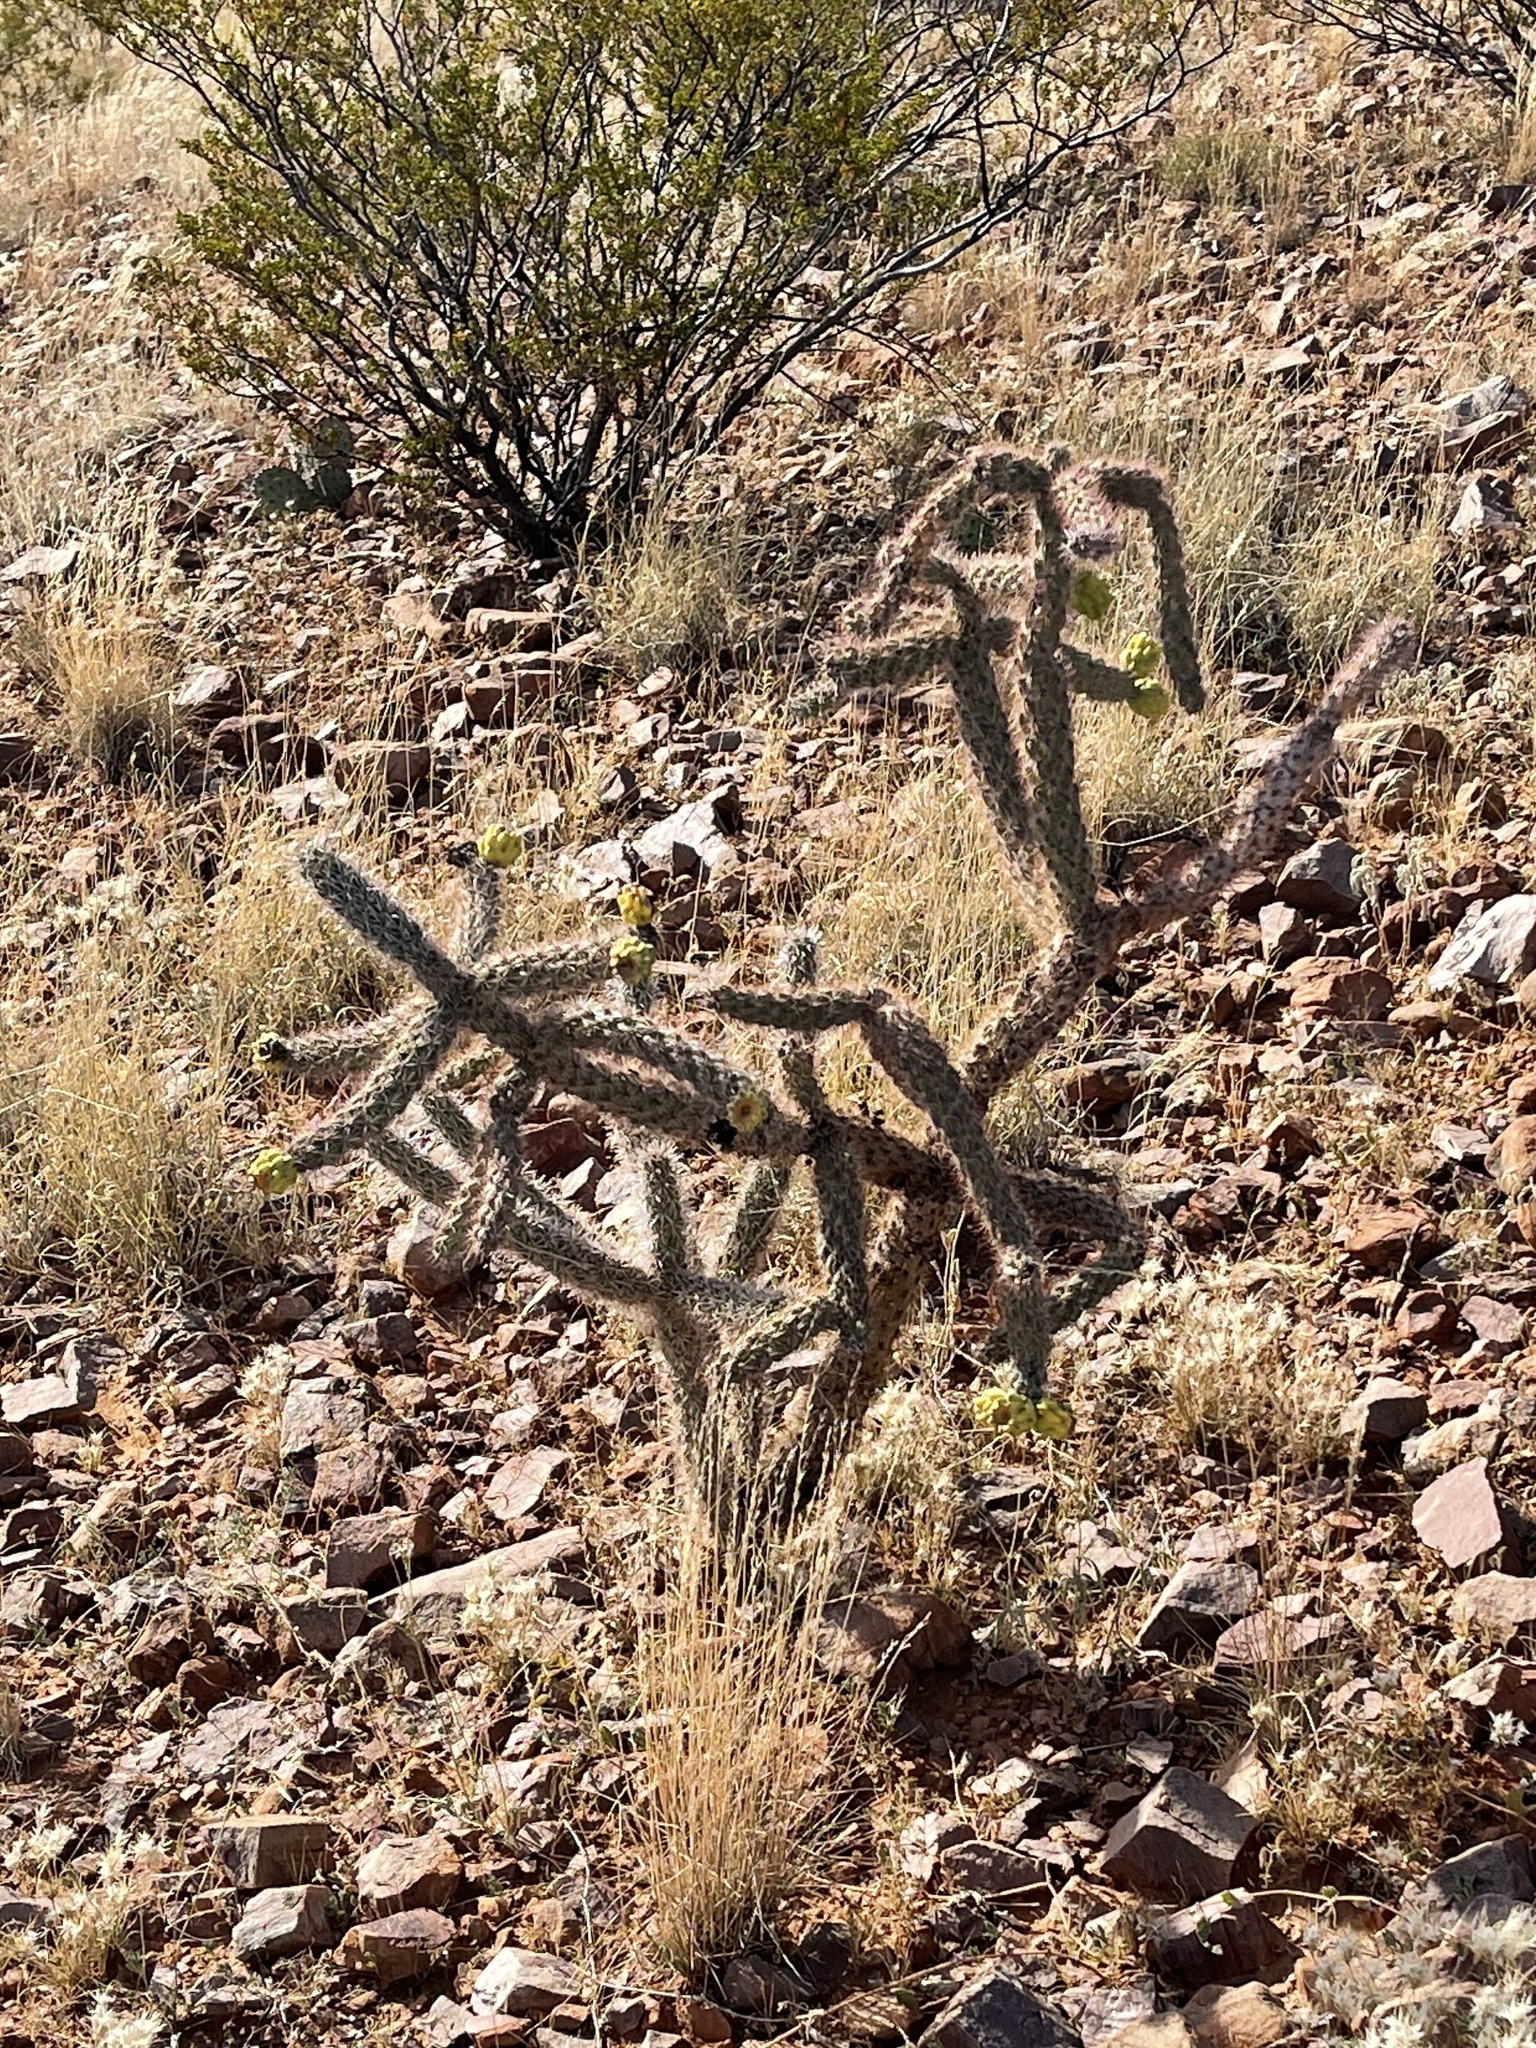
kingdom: Plantae
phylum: Tracheophyta
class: Magnoliopsida
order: Caryophyllales
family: Cactaceae
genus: Cylindropuntia
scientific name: Cylindropuntia imbricata
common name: Candelabrum cactus
